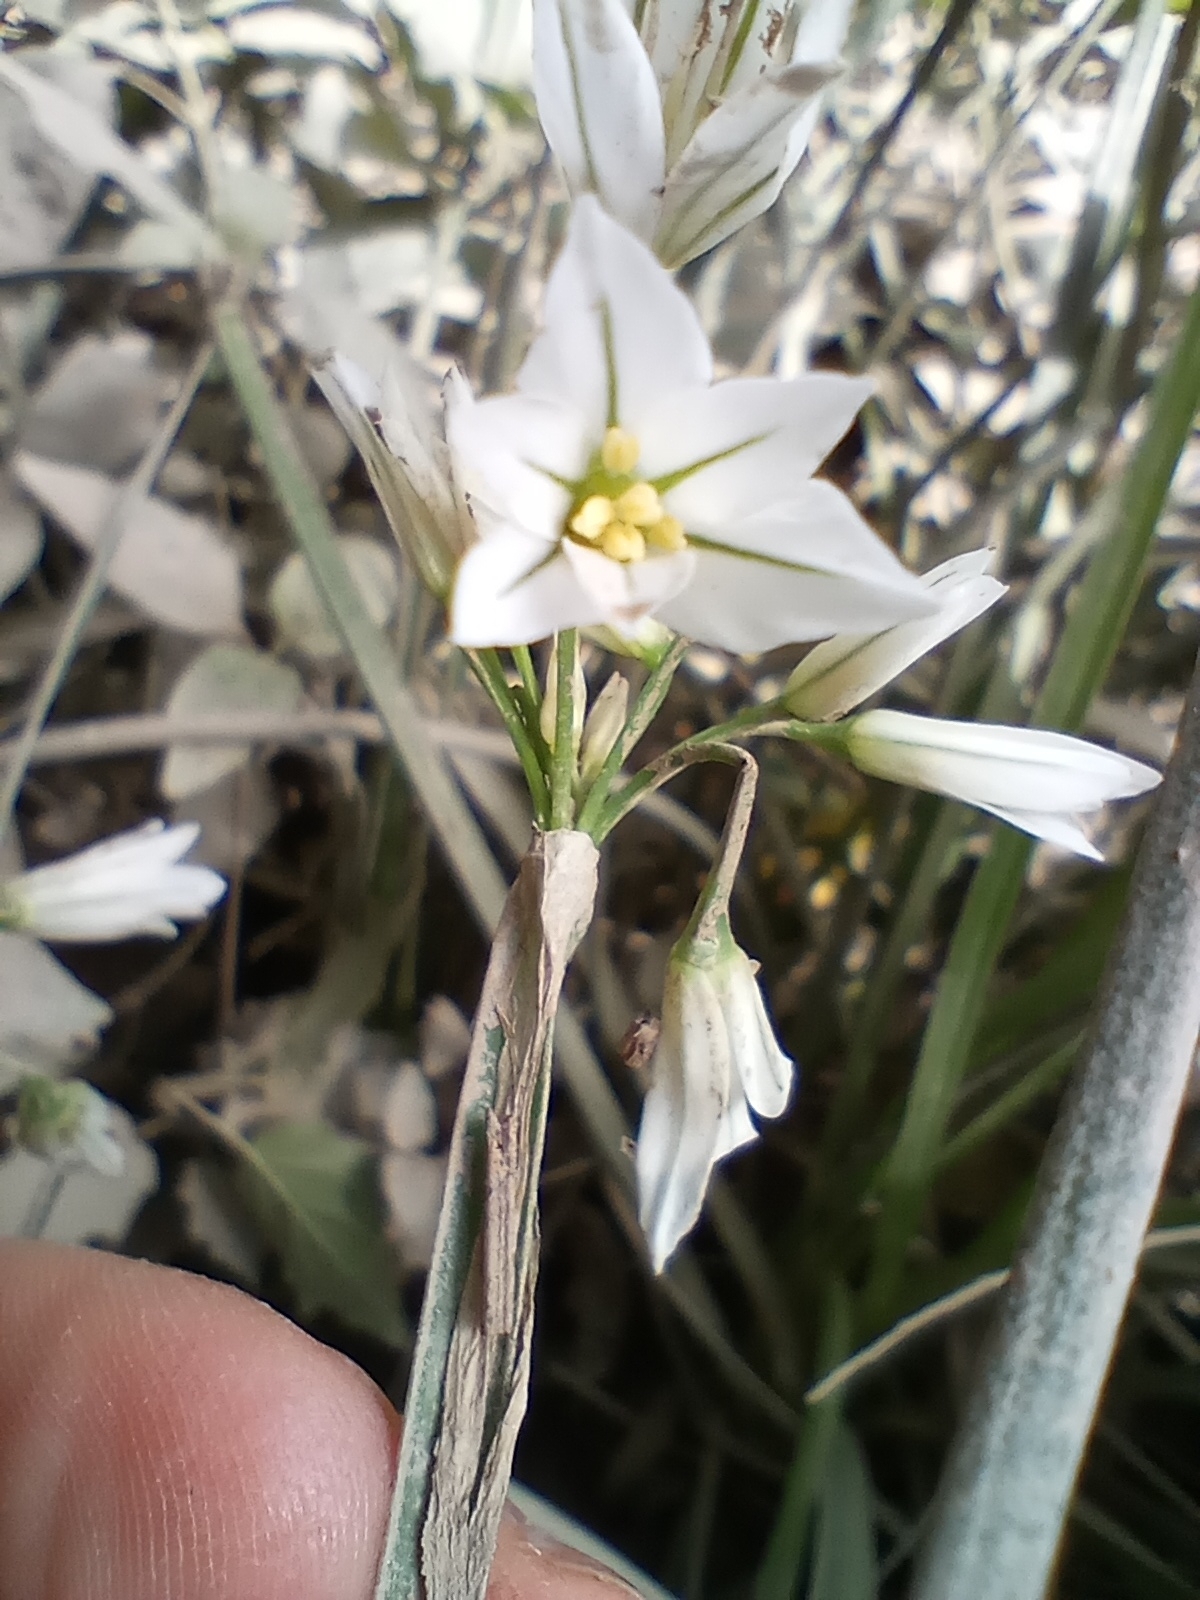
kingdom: Plantae
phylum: Tracheophyta
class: Liliopsida
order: Asparagales
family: Amaryllidaceae
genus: Allium
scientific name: Allium triquetrum
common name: Three-cornered garlic
